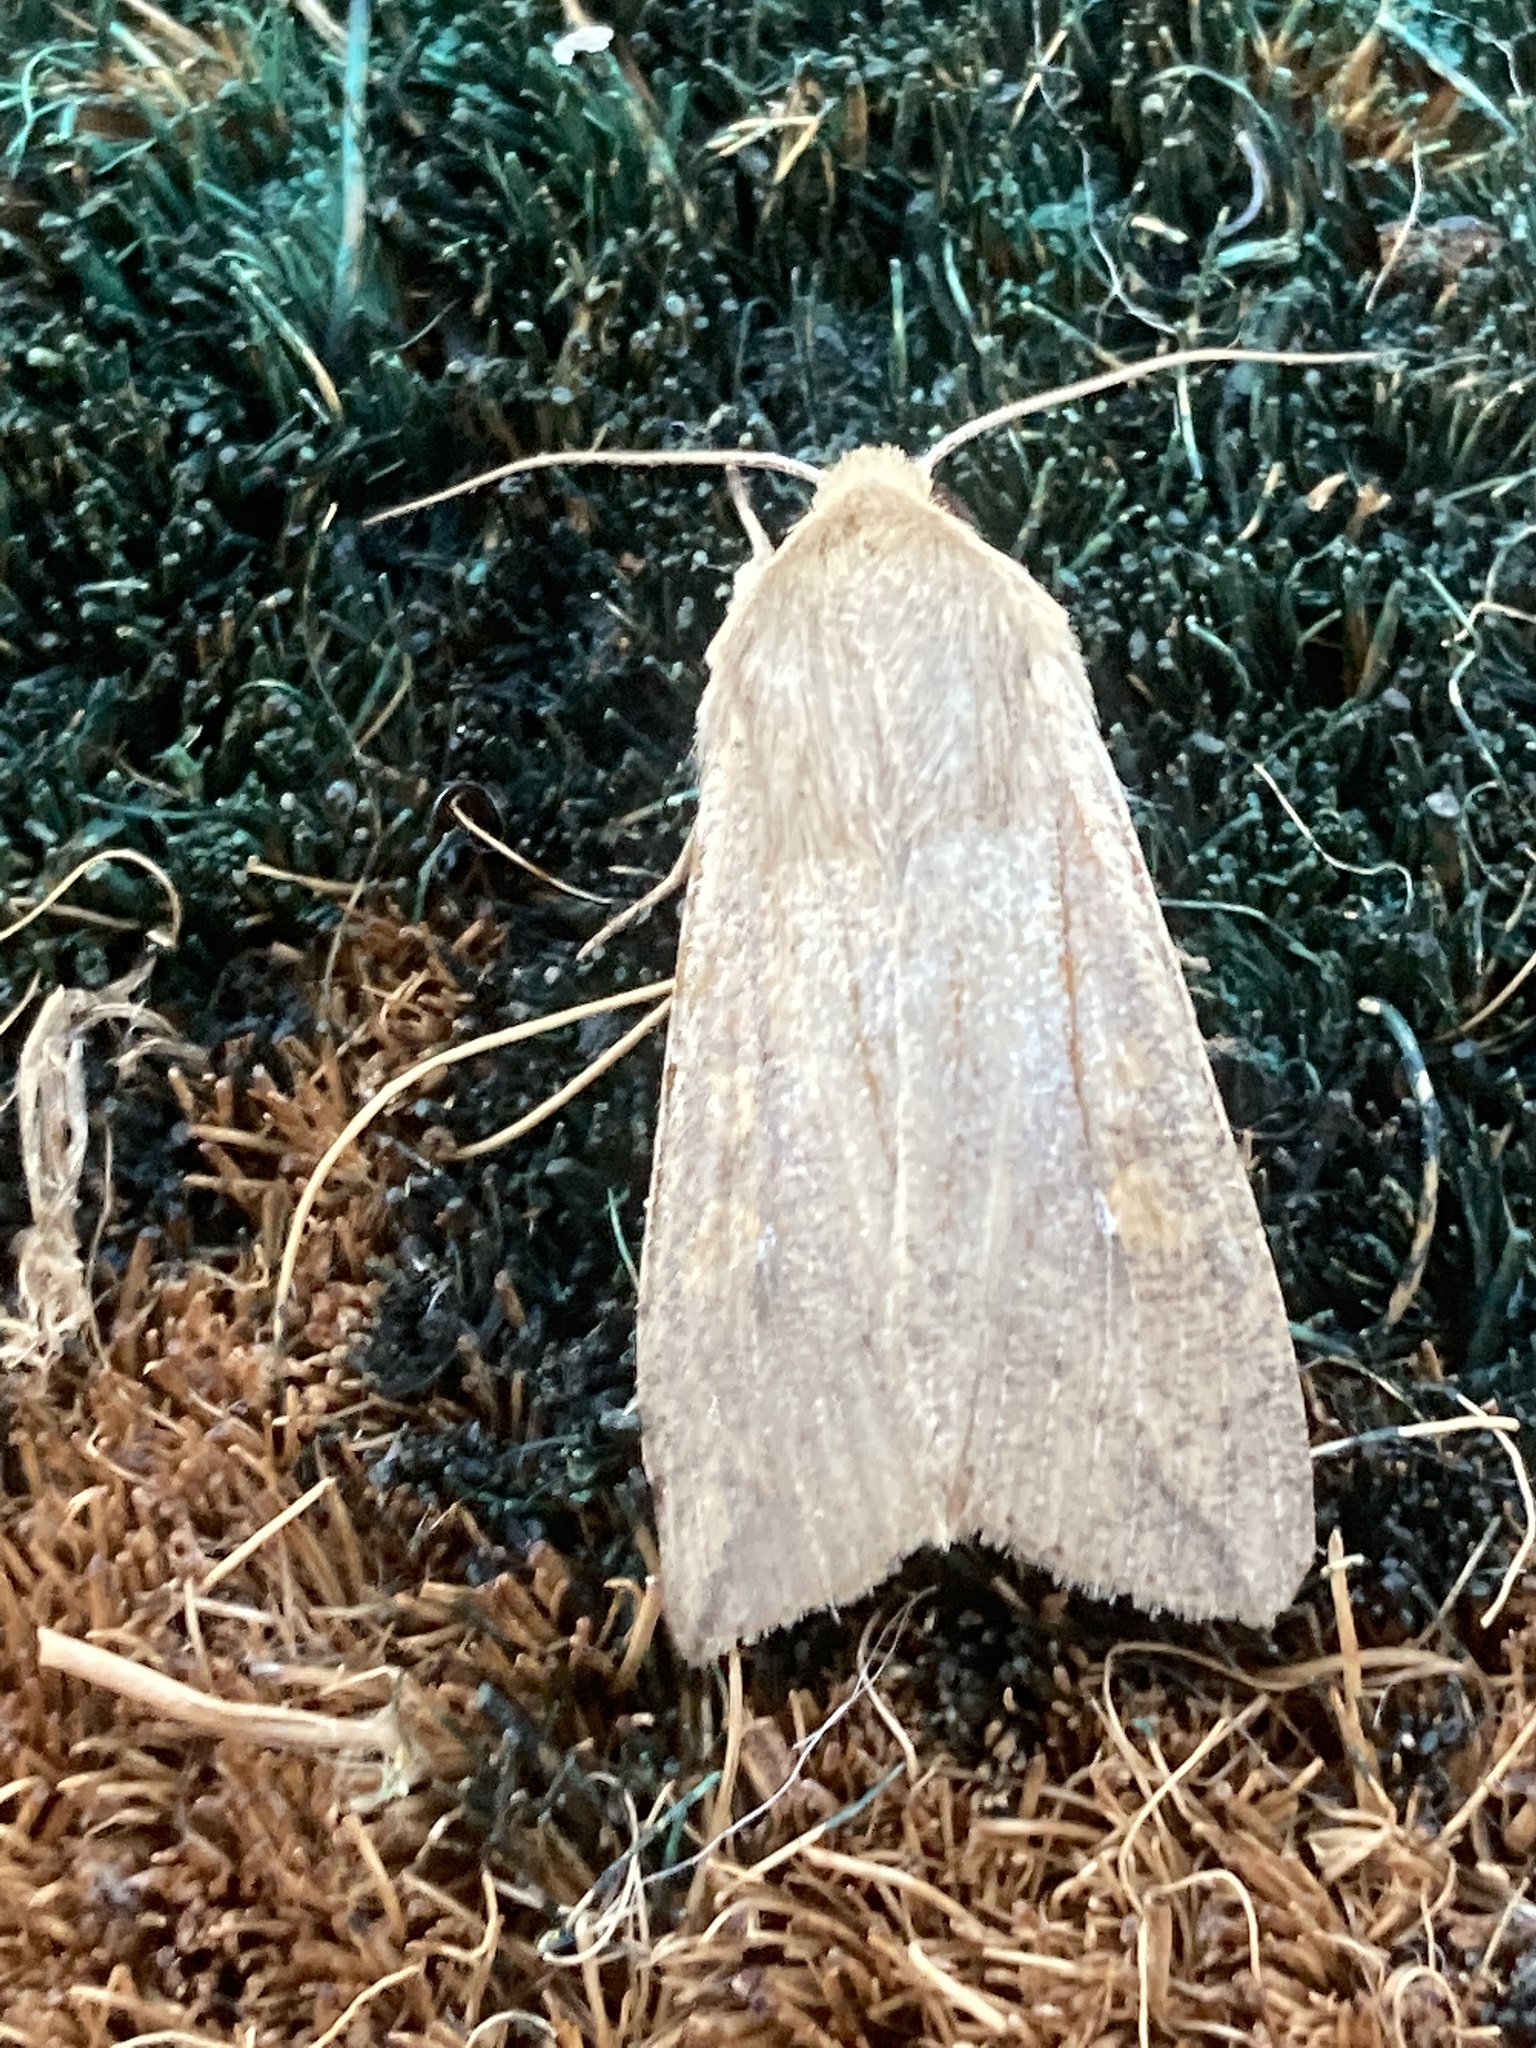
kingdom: Animalia
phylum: Arthropoda
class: Insecta
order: Lepidoptera
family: Noctuidae
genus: Mythimna
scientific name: Mythimna unipuncta
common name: White-speck
